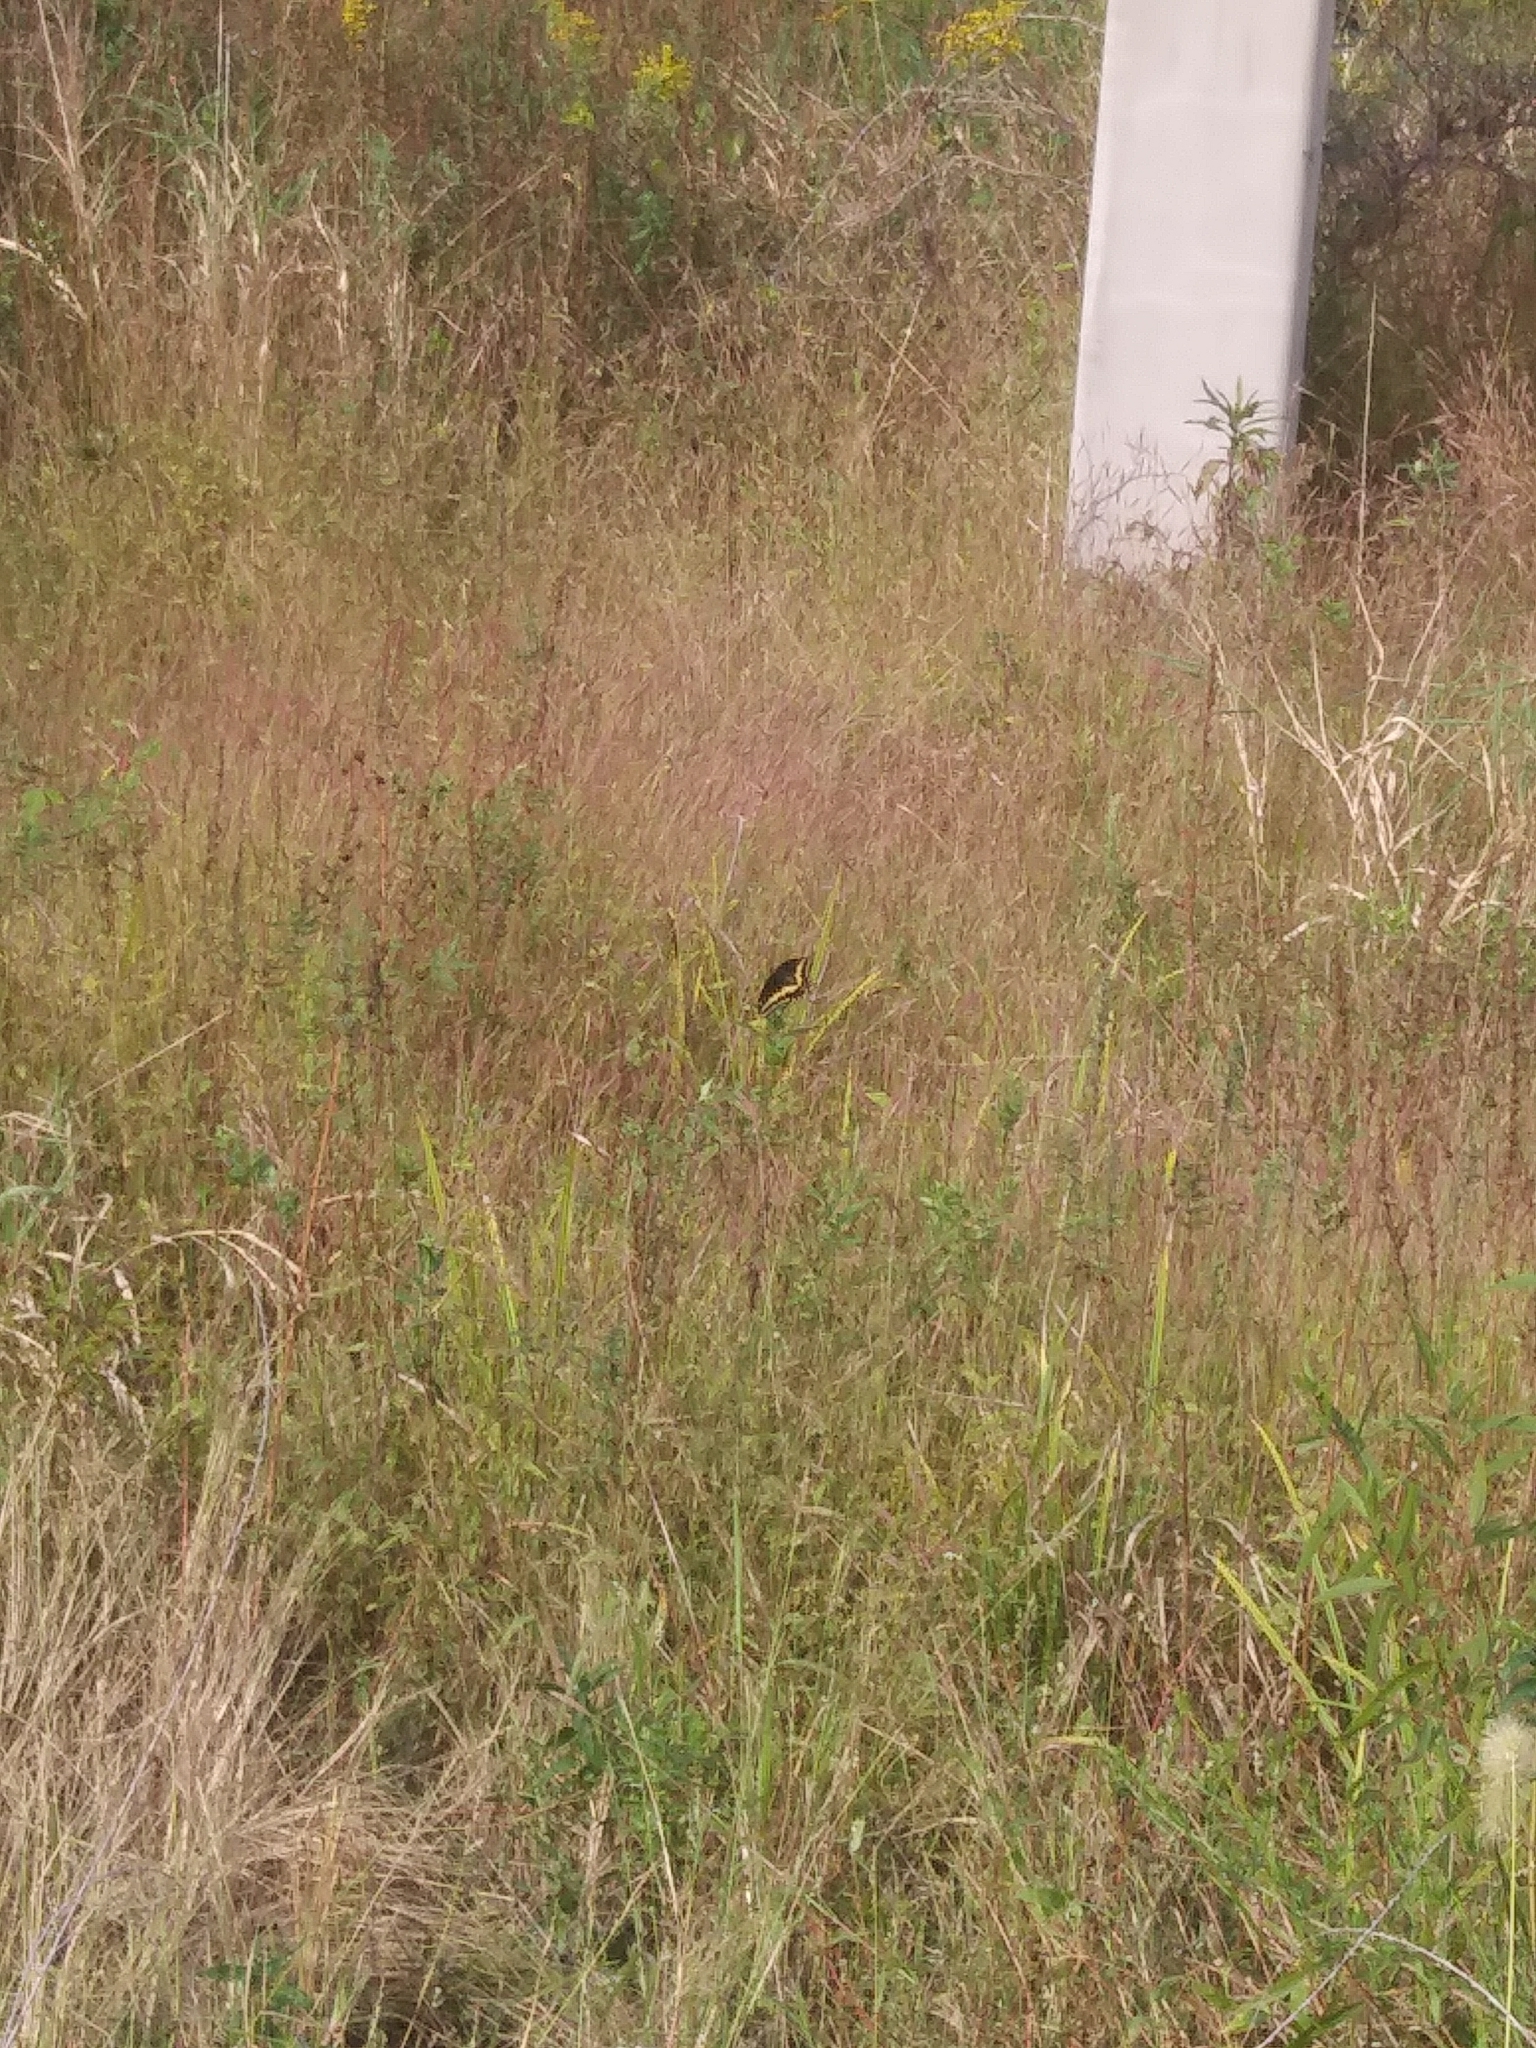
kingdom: Animalia
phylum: Arthropoda
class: Insecta
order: Lepidoptera
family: Papilionidae
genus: Papilio
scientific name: Papilio polyxenes
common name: Black swallowtail
